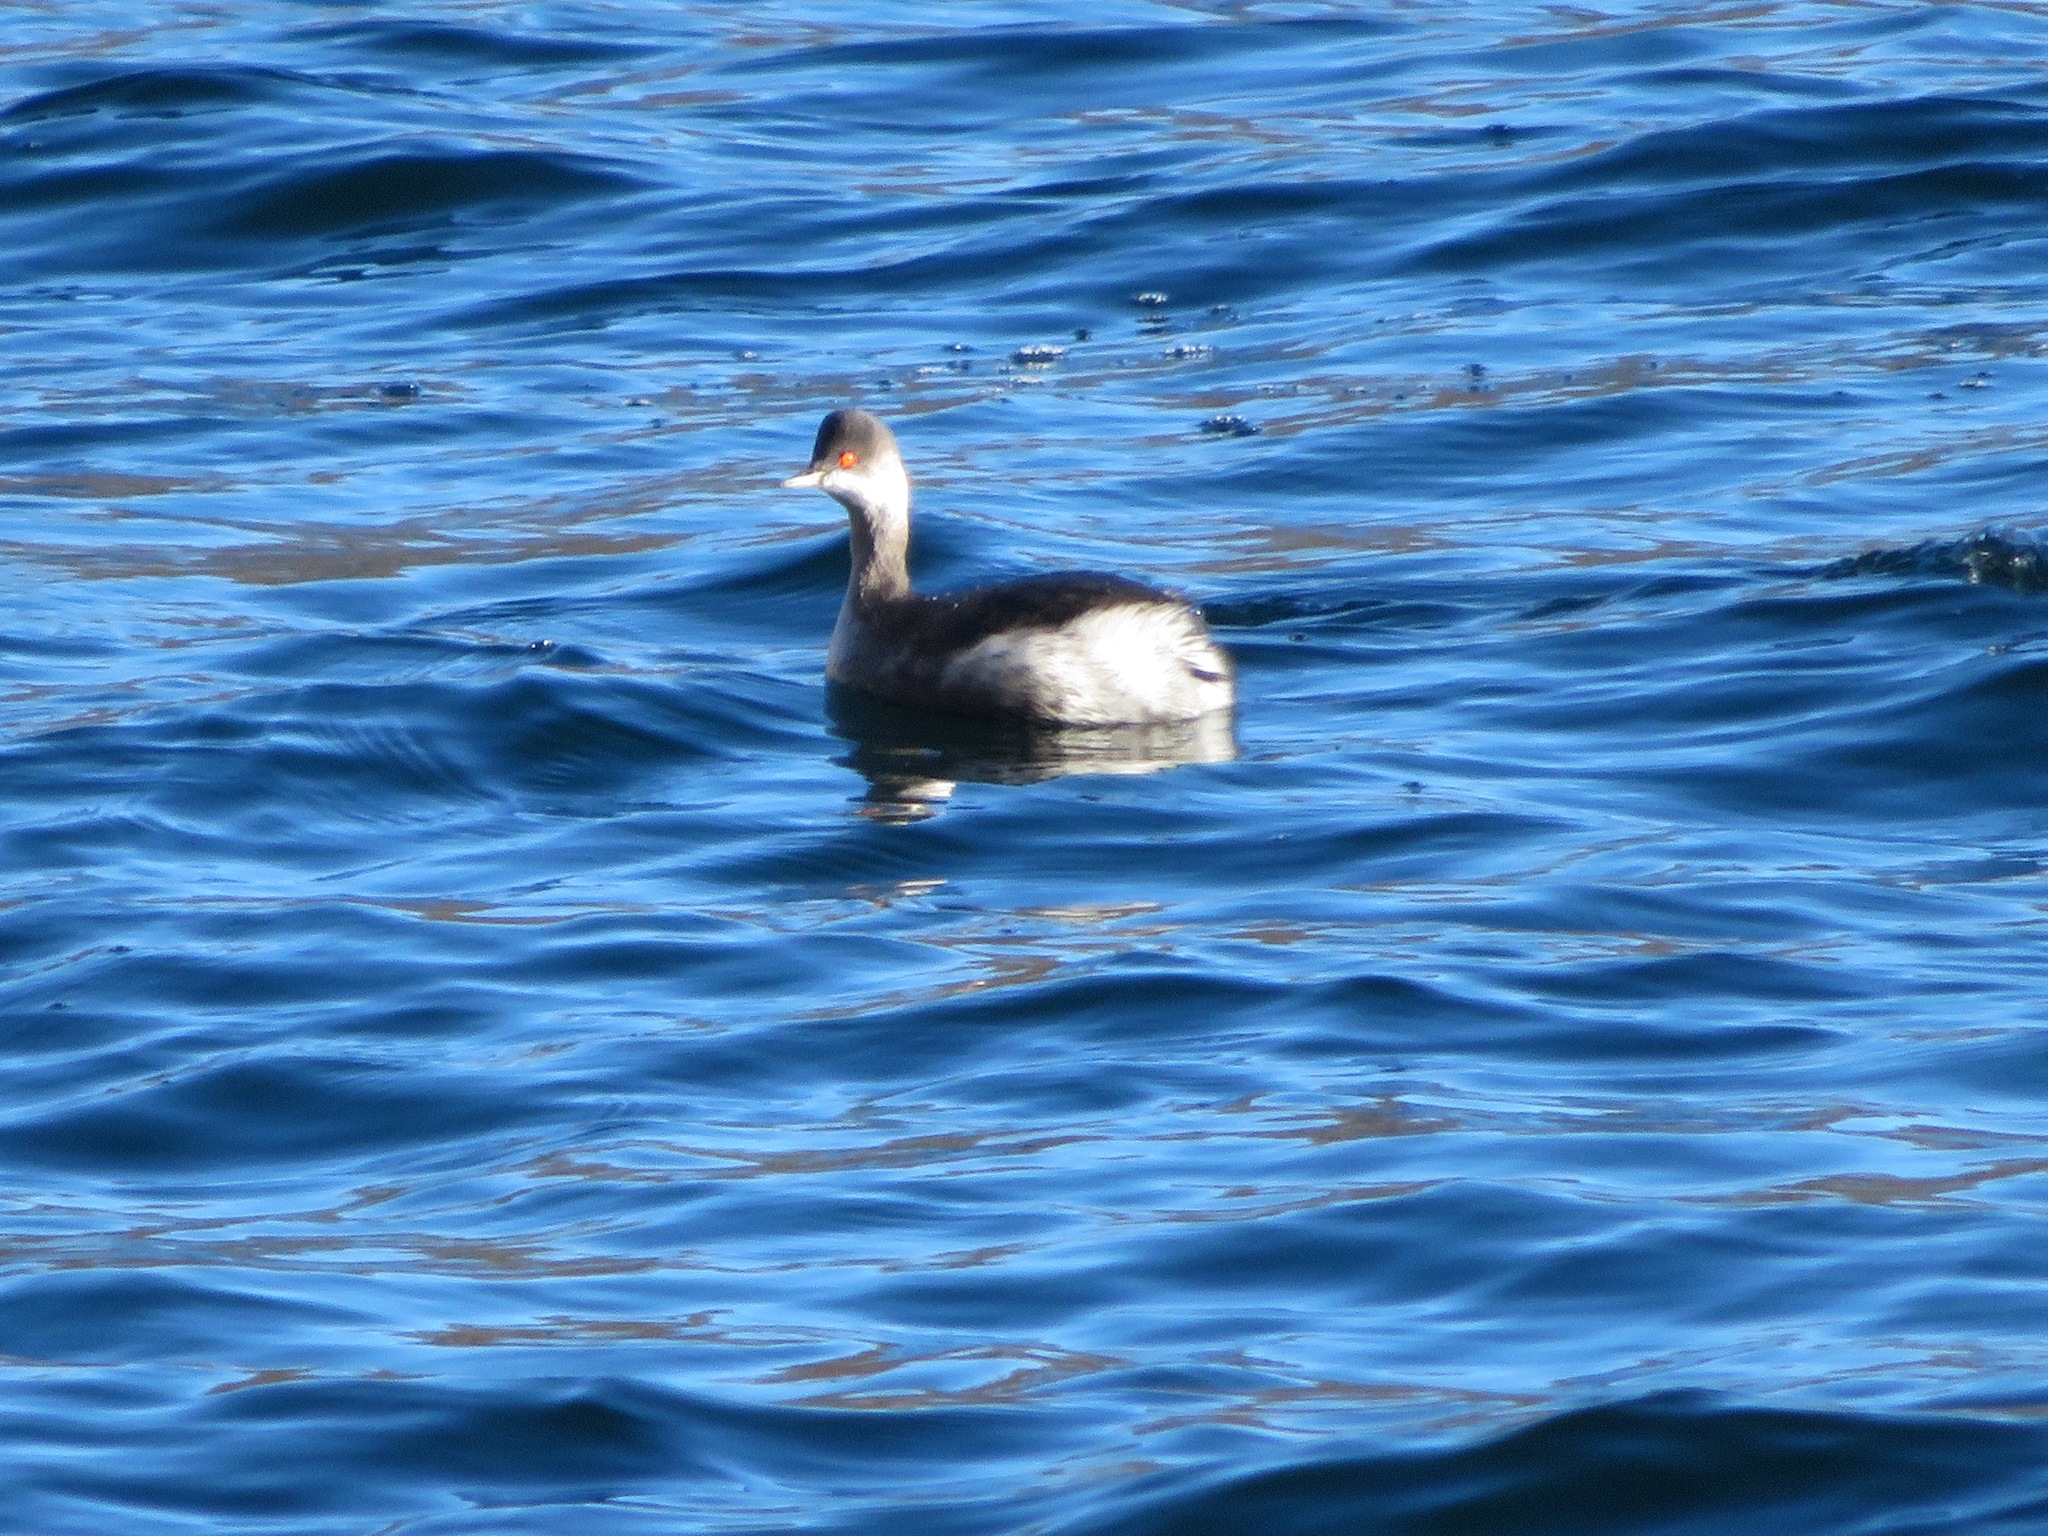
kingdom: Animalia
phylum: Chordata
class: Aves
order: Podicipediformes
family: Podicipedidae
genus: Podiceps
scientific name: Podiceps nigricollis
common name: Black-necked grebe
